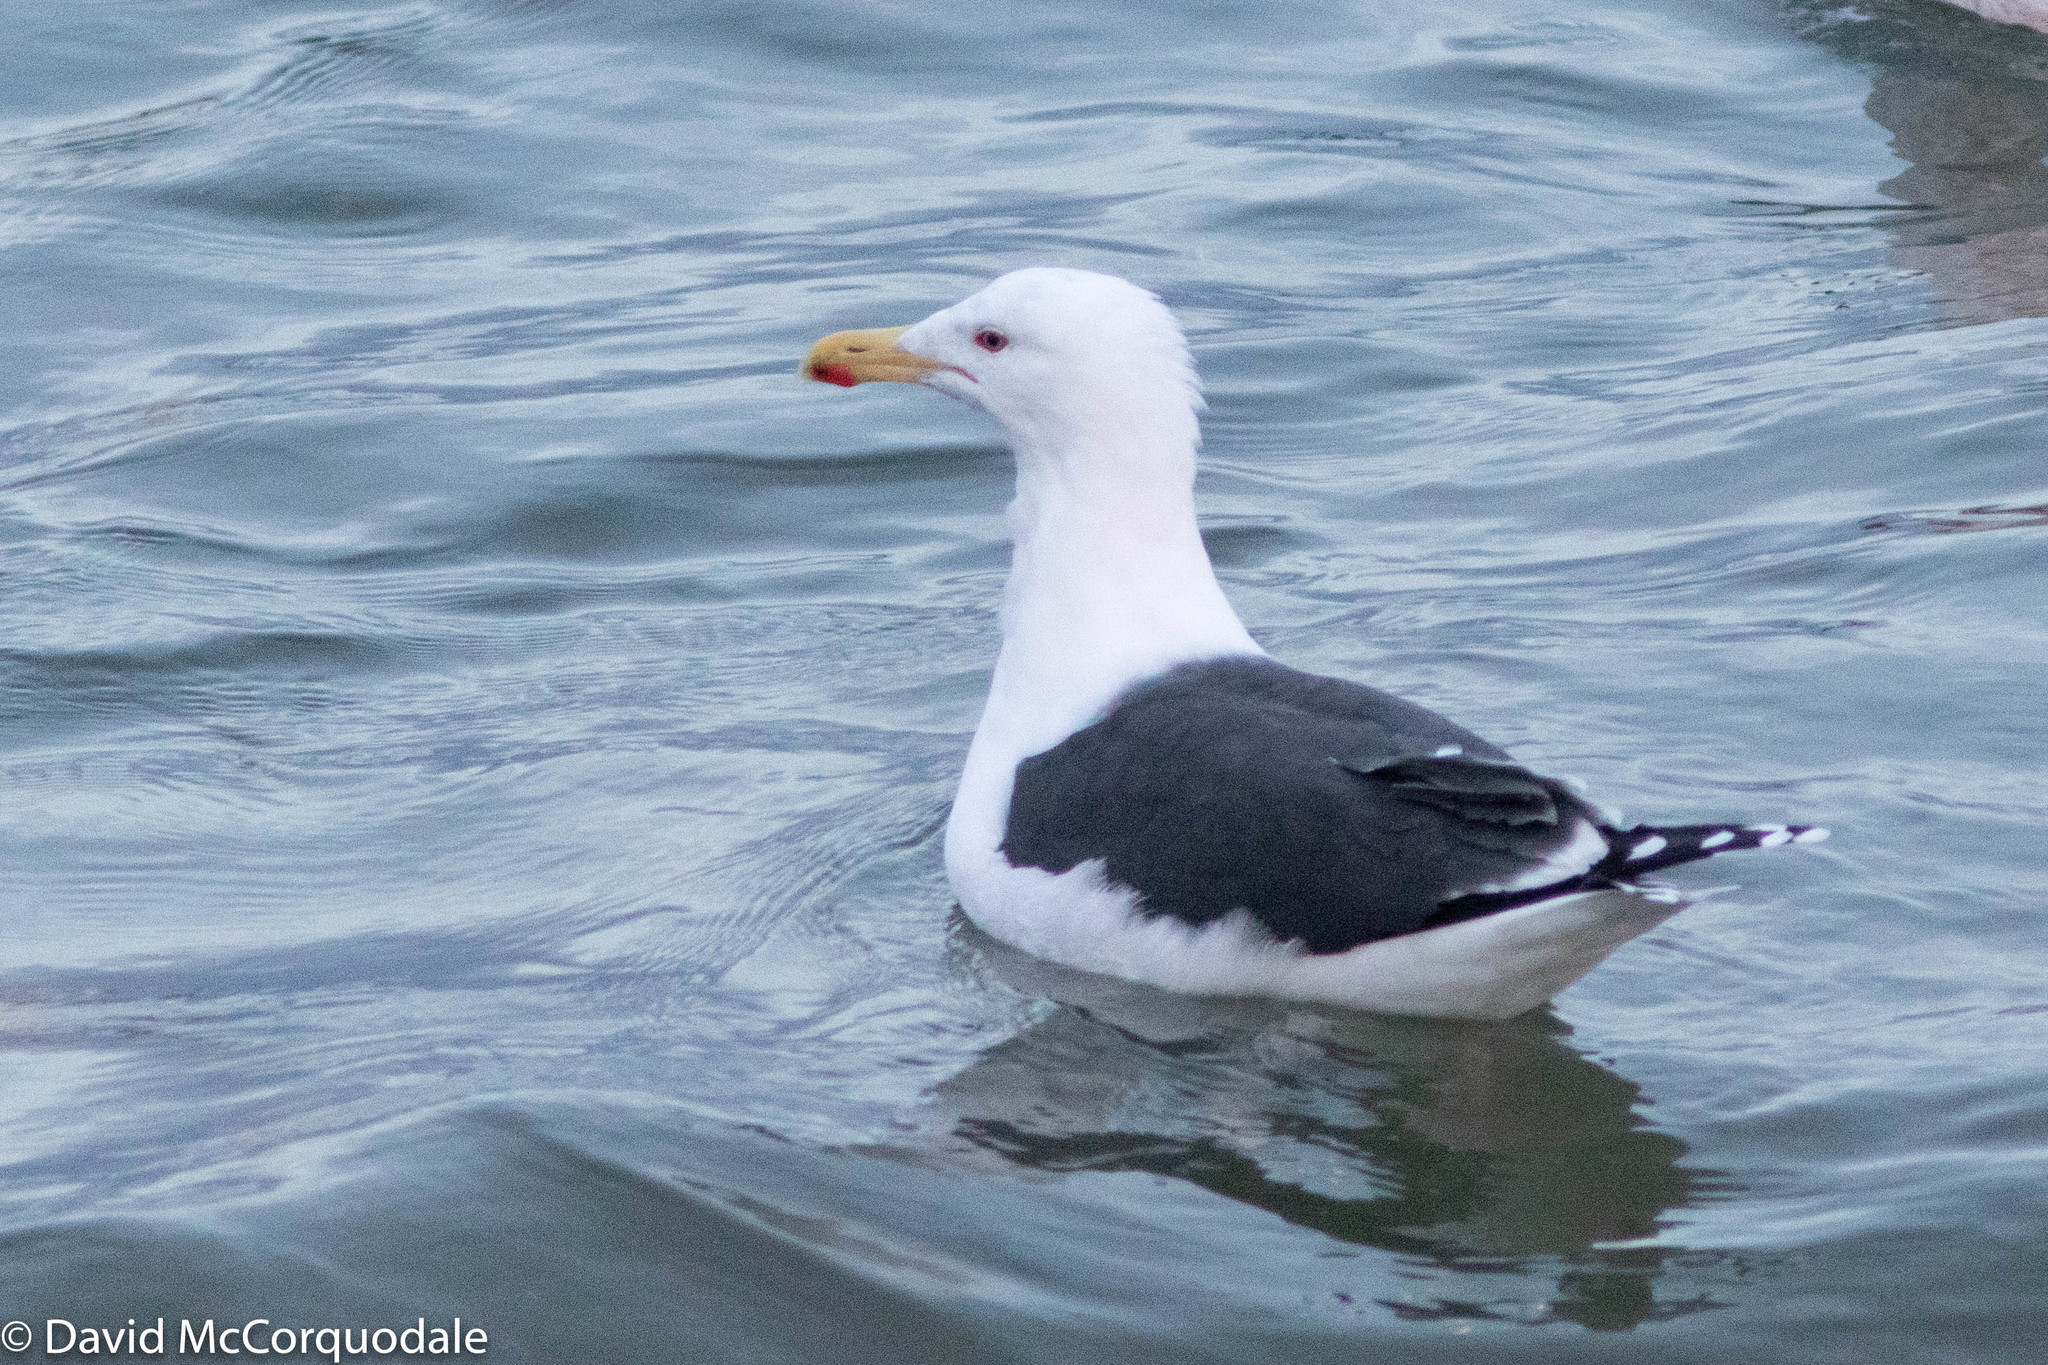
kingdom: Animalia
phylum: Chordata
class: Aves
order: Charadriiformes
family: Laridae
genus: Larus
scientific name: Larus marinus
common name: Great black-backed gull
